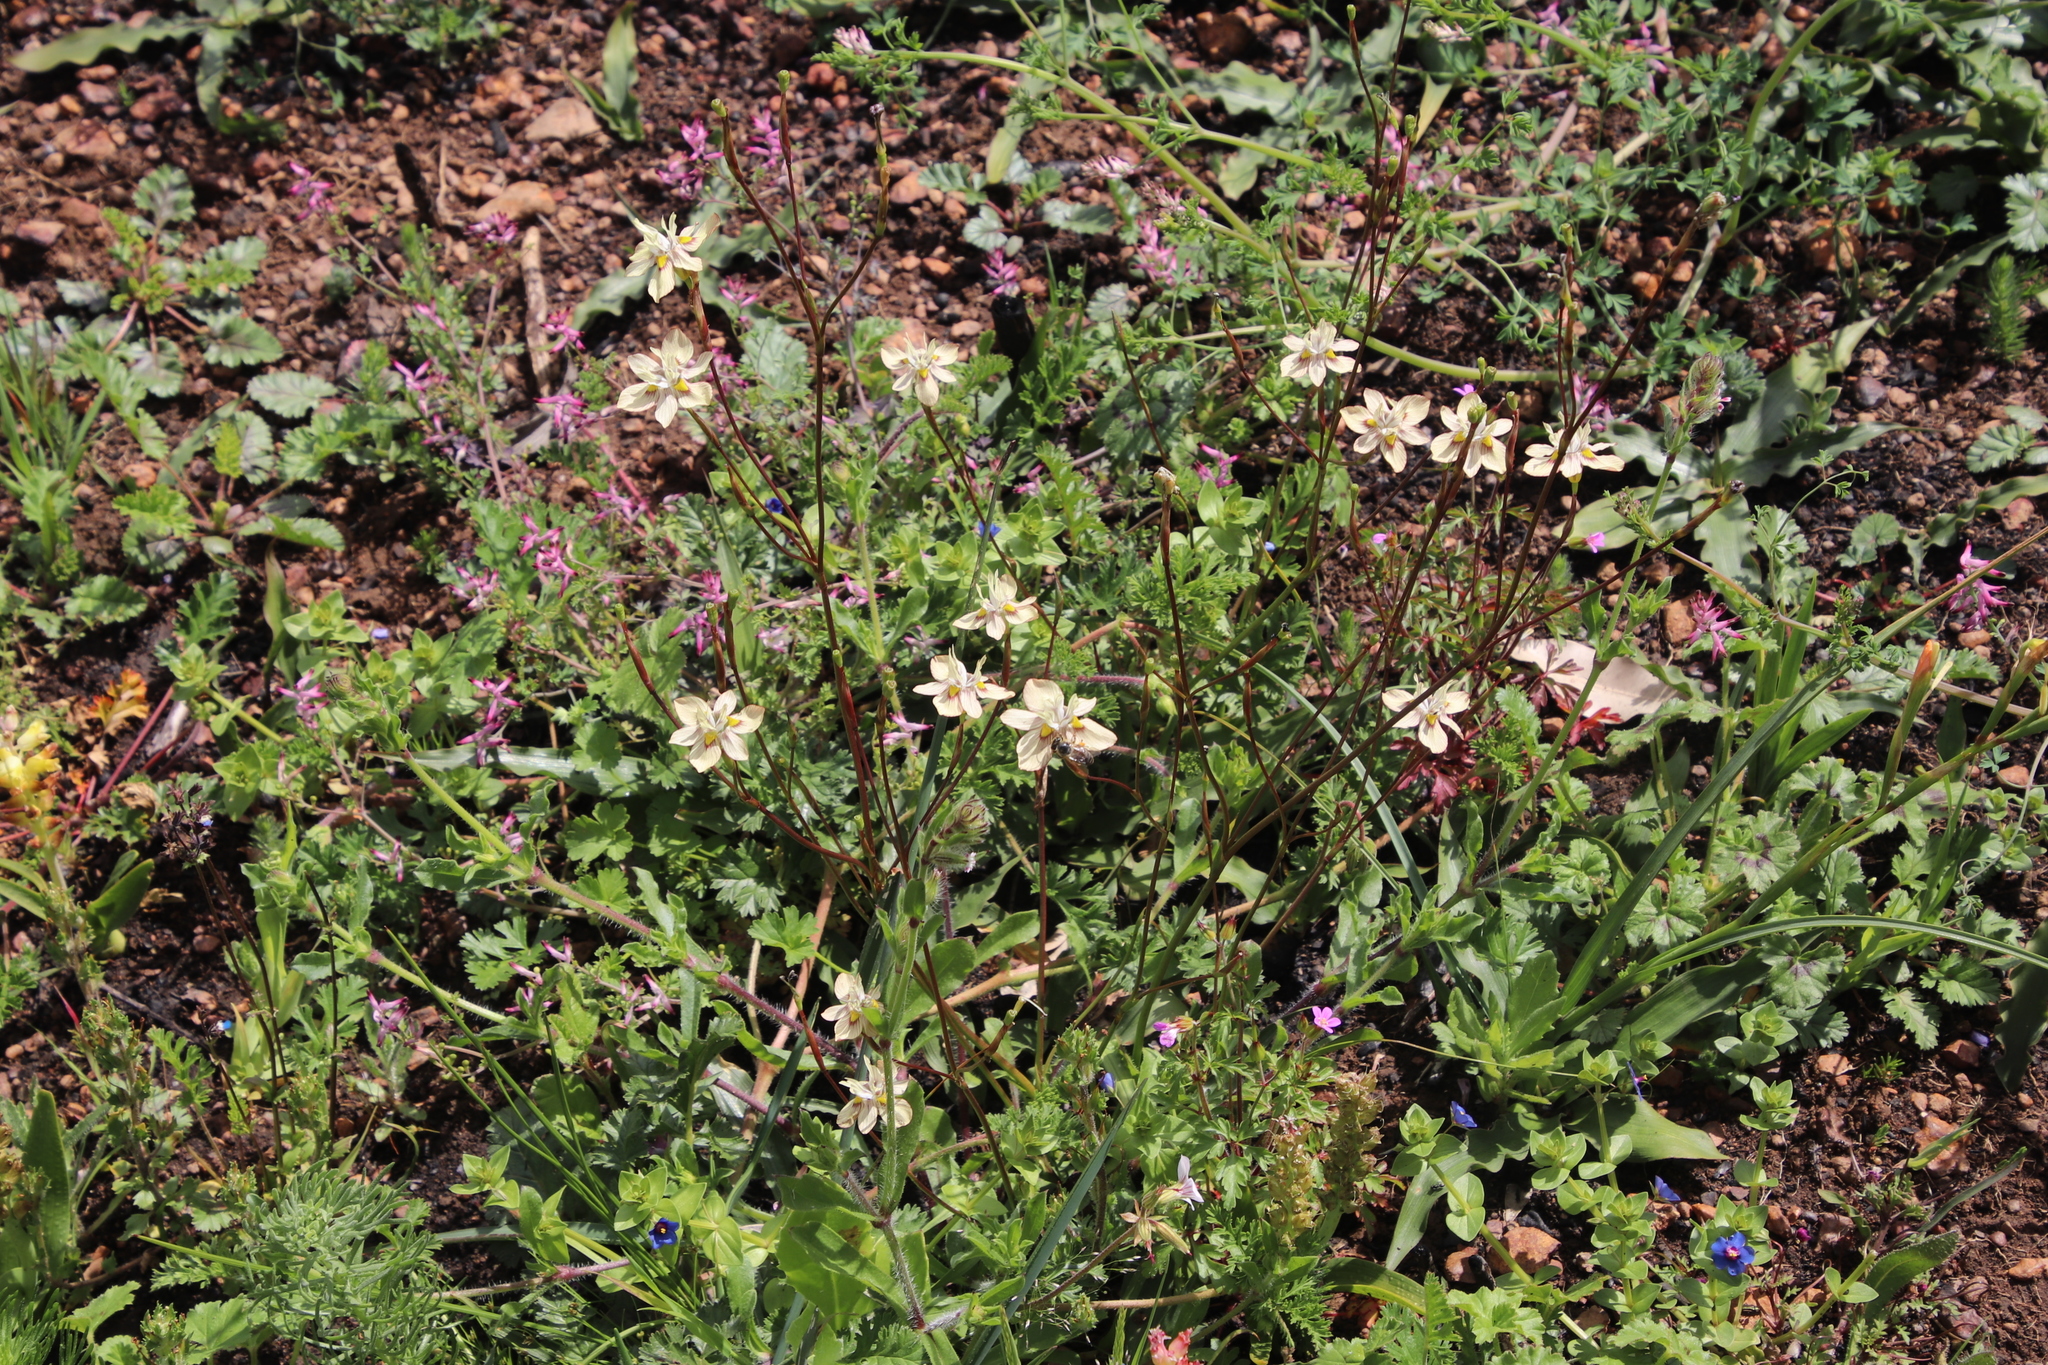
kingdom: Plantae
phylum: Tracheophyta
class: Liliopsida
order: Asparagales
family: Iridaceae
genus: Moraea
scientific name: Moraea gawleri
